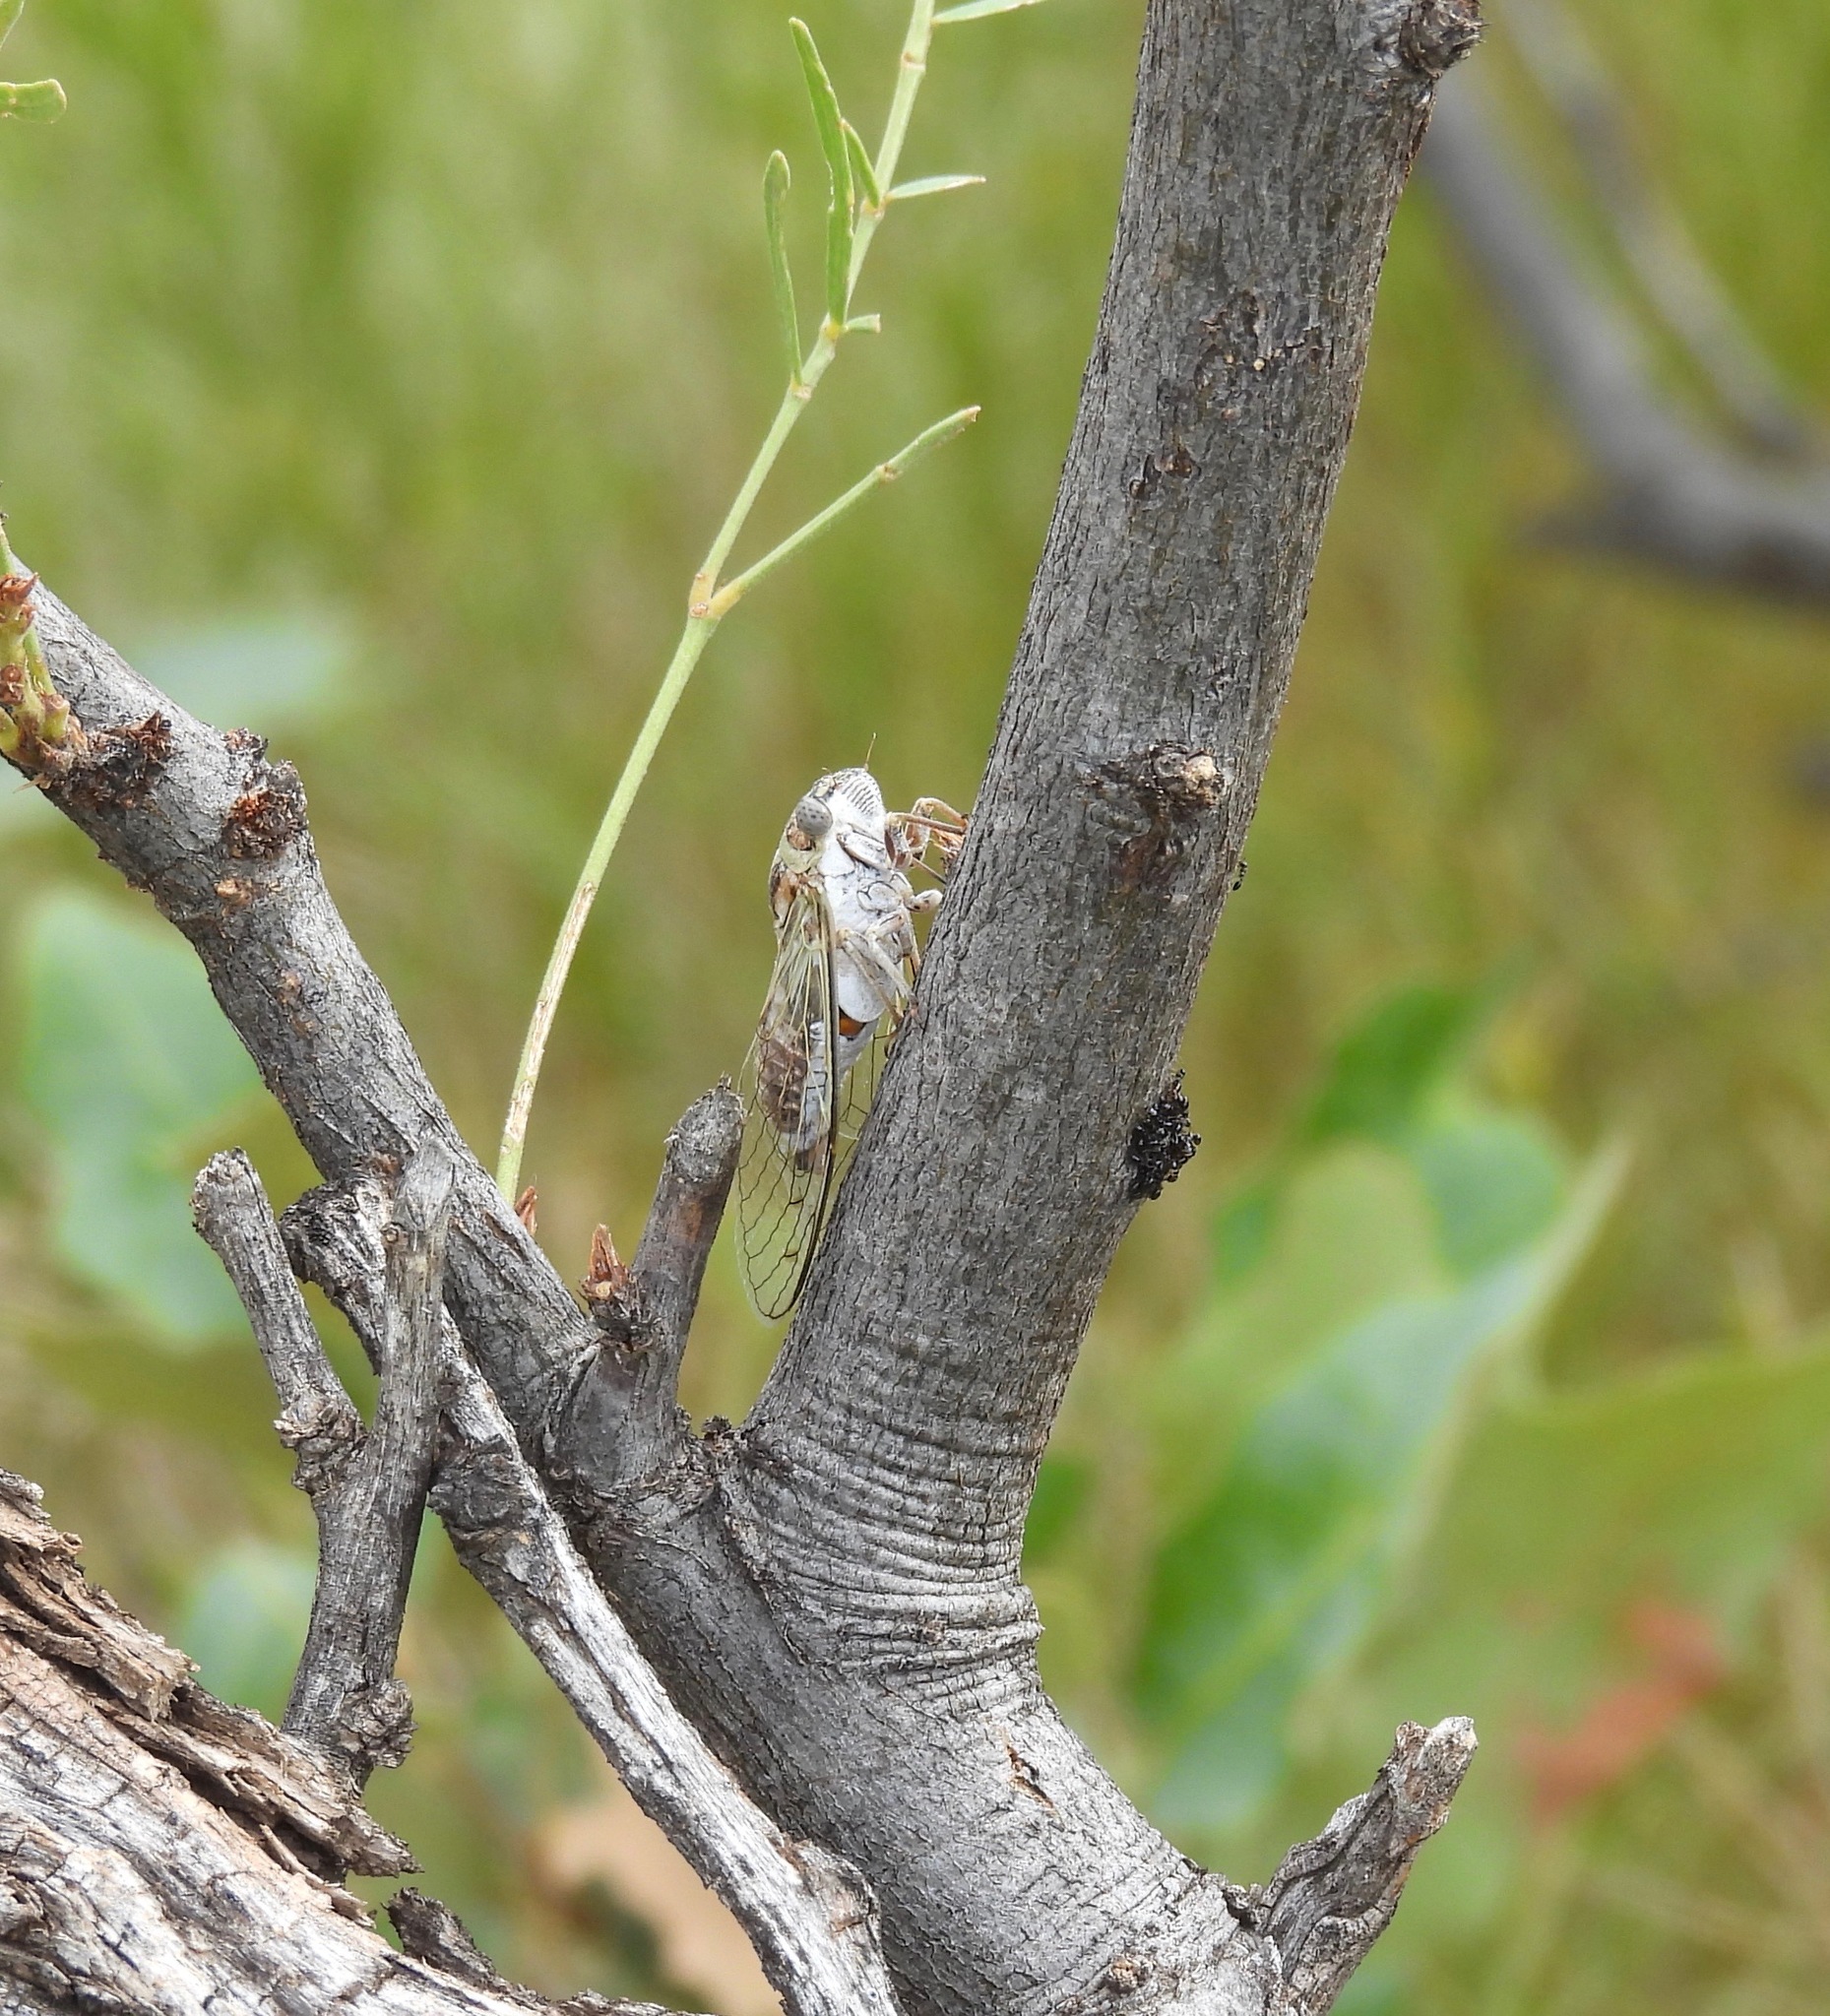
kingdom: Animalia
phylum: Arthropoda
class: Insecta
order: Hemiptera
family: Cicadidae
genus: Diceroprocta
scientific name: Diceroprocta texana
